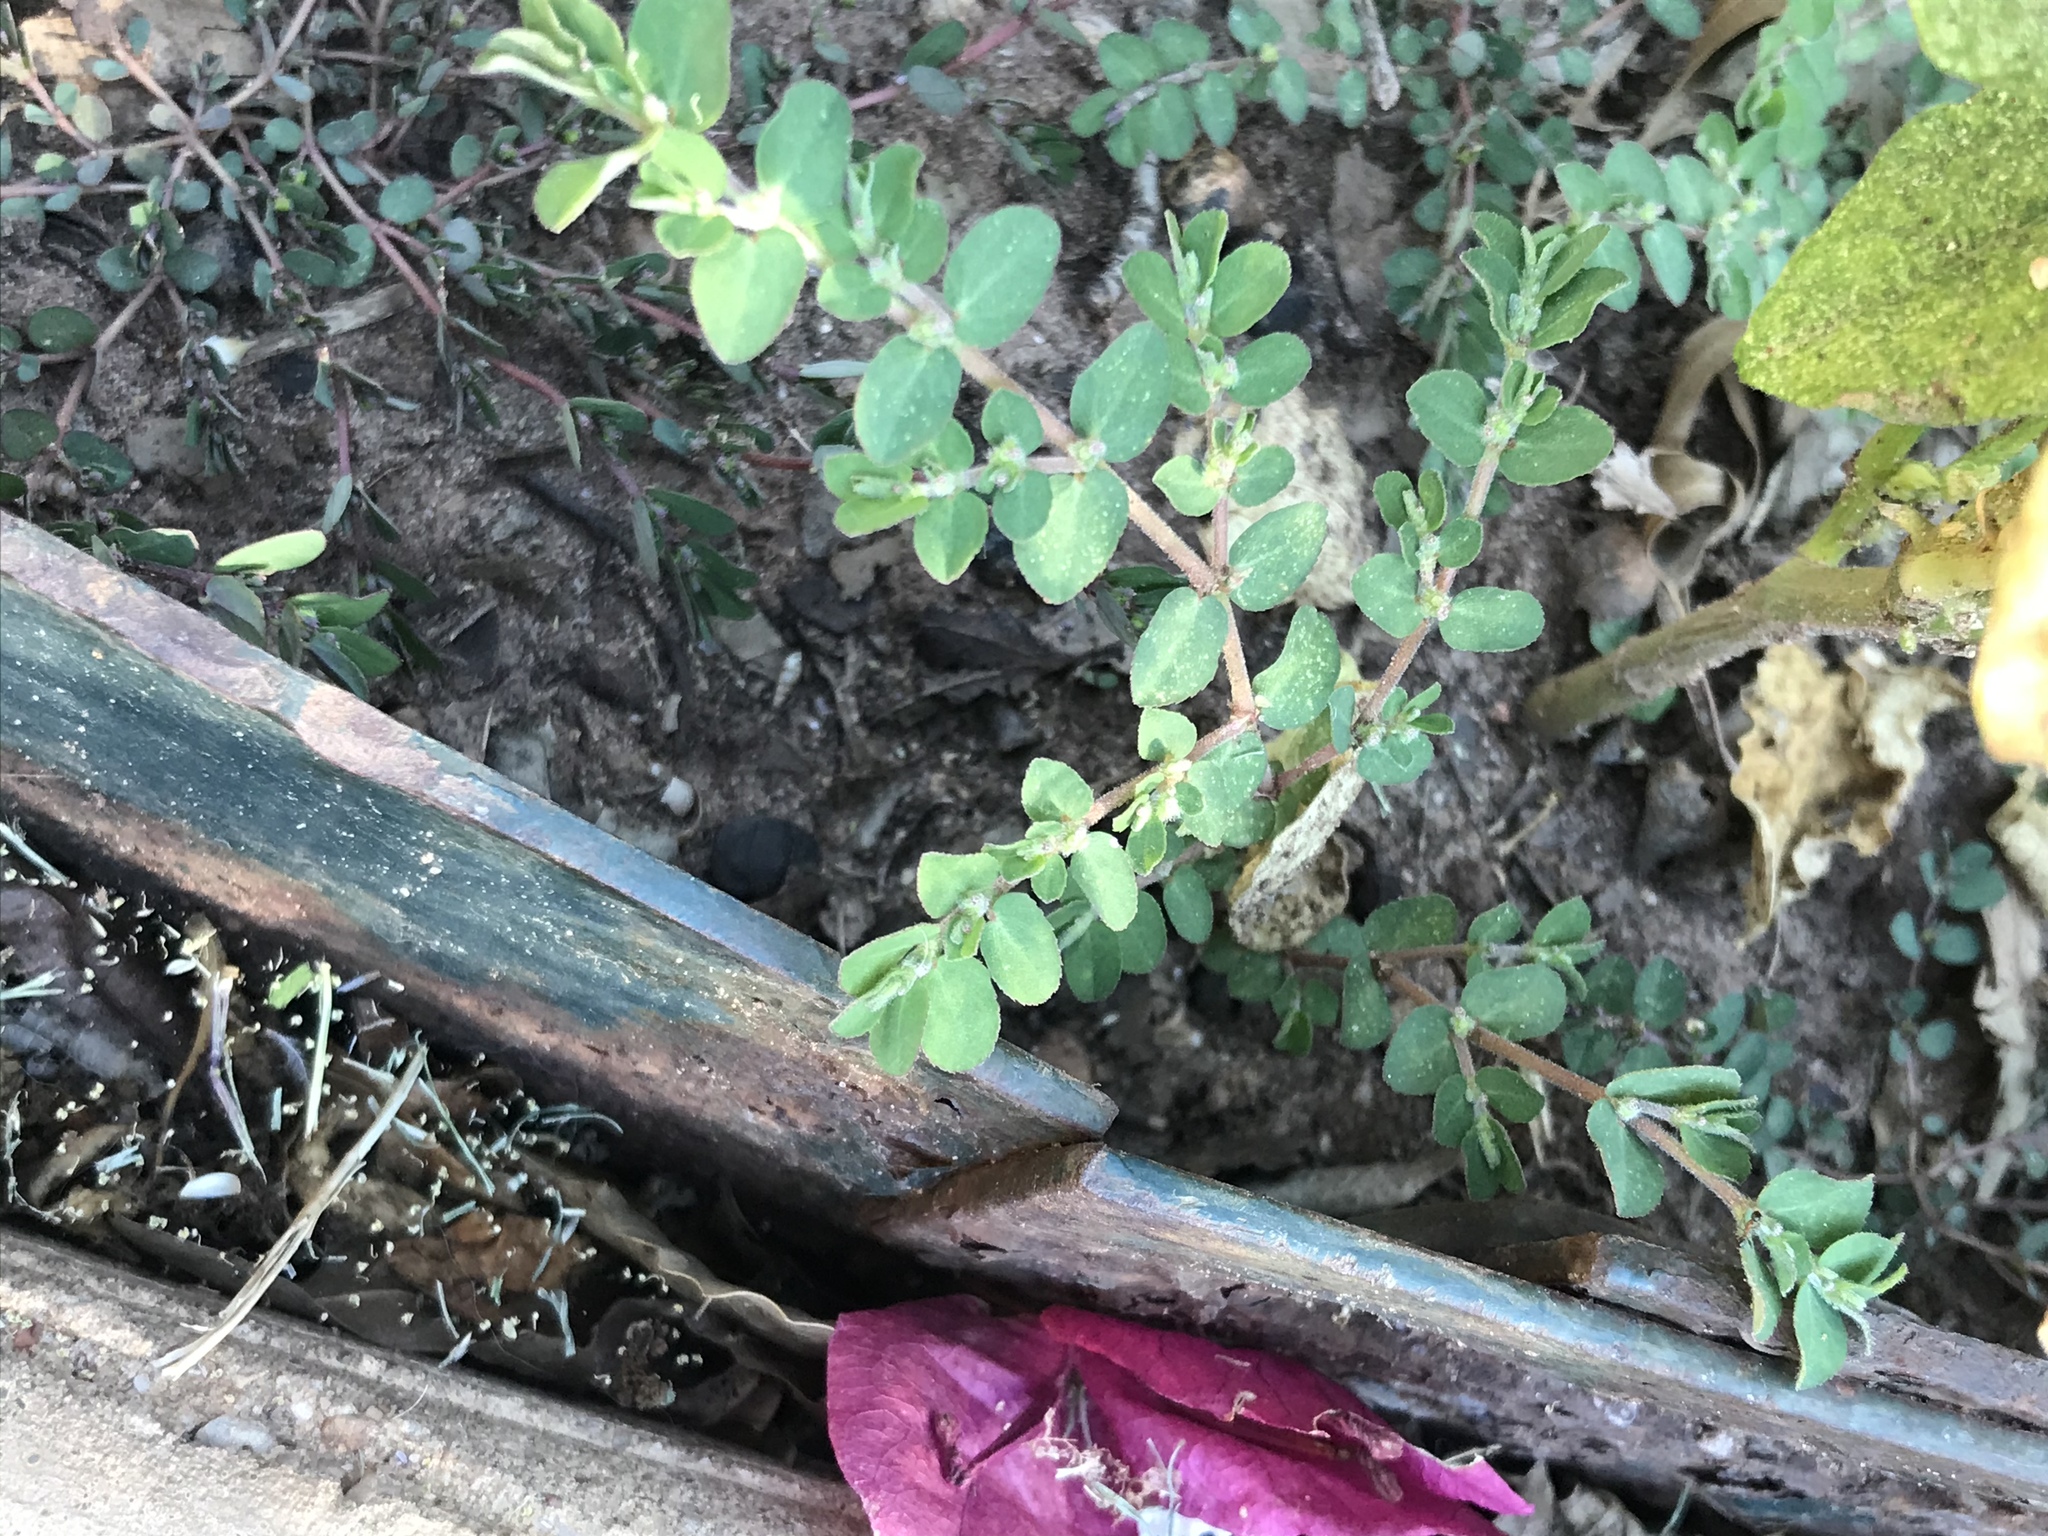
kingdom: Plantae
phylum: Tracheophyta
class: Magnoliopsida
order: Malpighiales
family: Euphorbiaceae
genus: Euphorbia
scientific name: Euphorbia prostrata
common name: Prostrate sandmat
